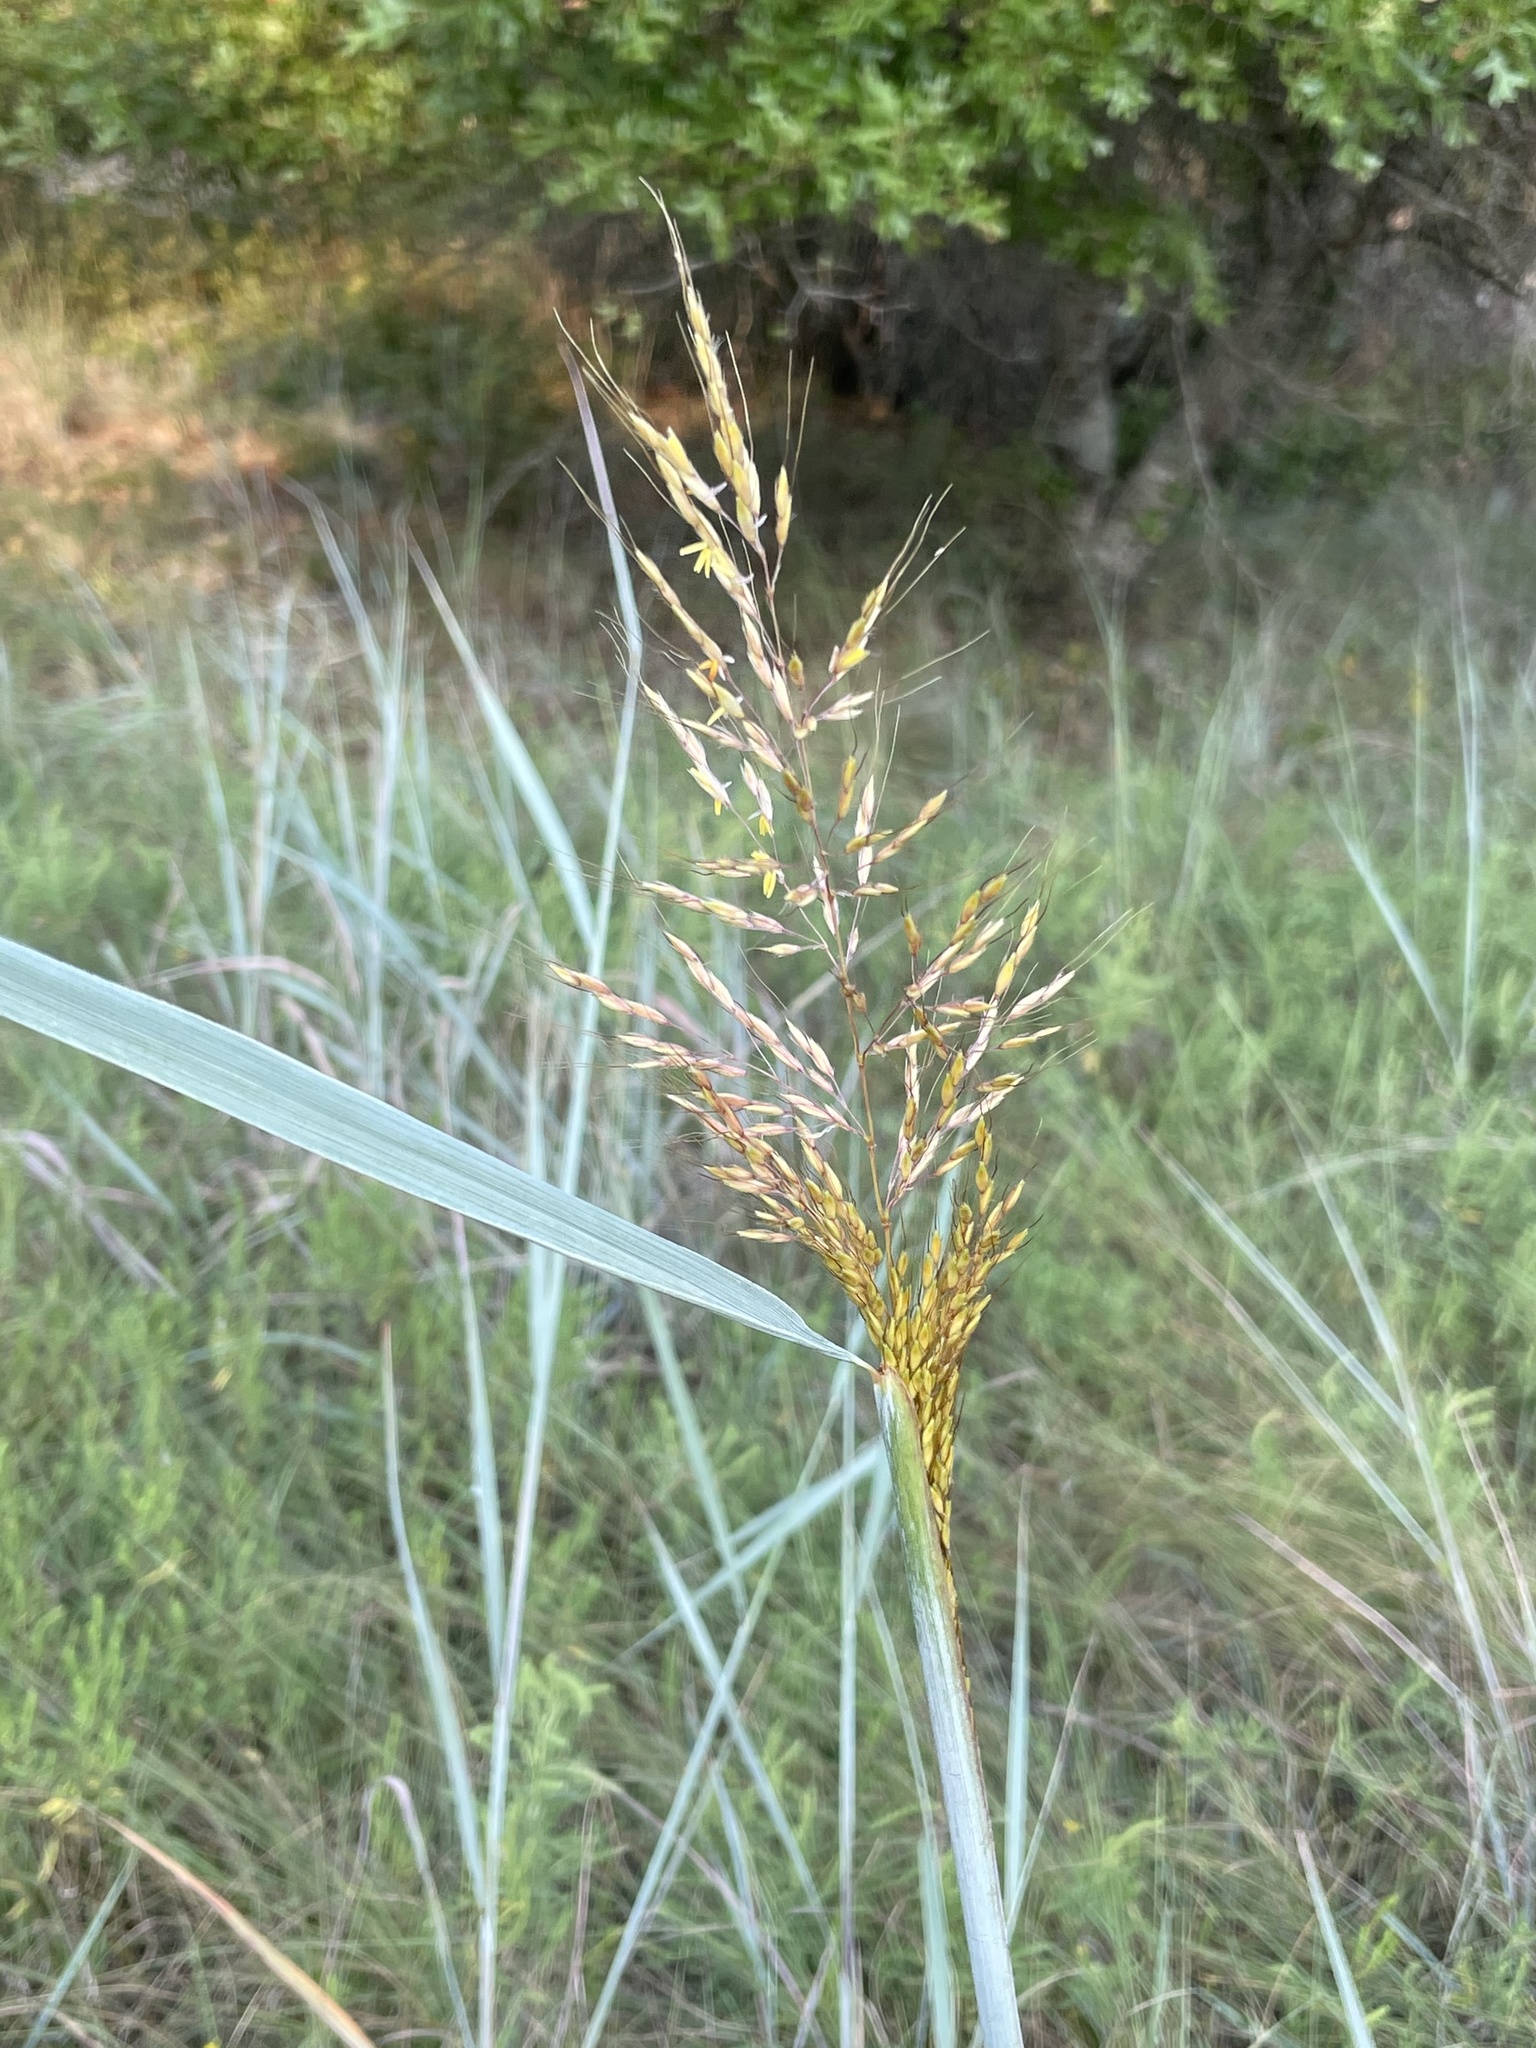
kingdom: Plantae
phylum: Tracheophyta
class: Liliopsida
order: Poales
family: Poaceae
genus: Sorghastrum
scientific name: Sorghastrum nutans
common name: Indian grass
